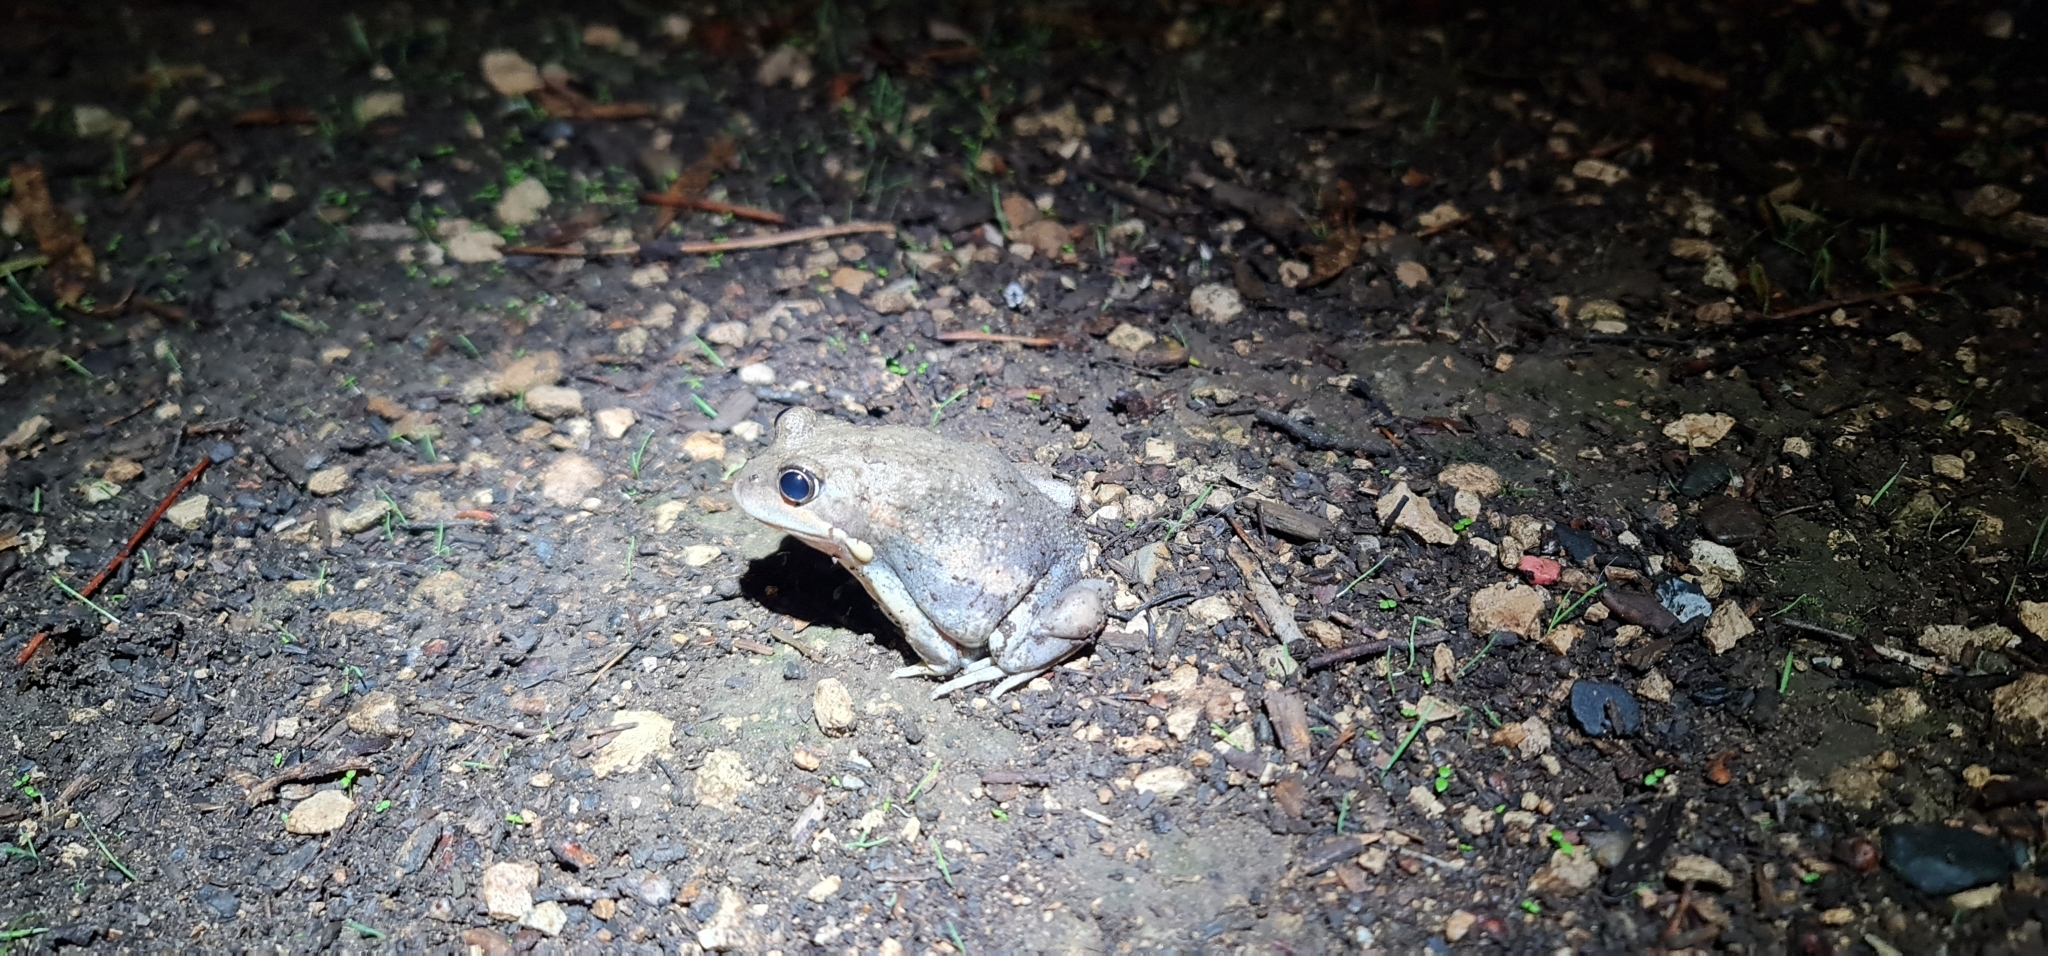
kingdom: Animalia
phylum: Chordata
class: Amphibia
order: Anura
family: Limnodynastidae
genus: Limnodynastes
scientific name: Limnodynastes dumerilii
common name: Banjo frog
